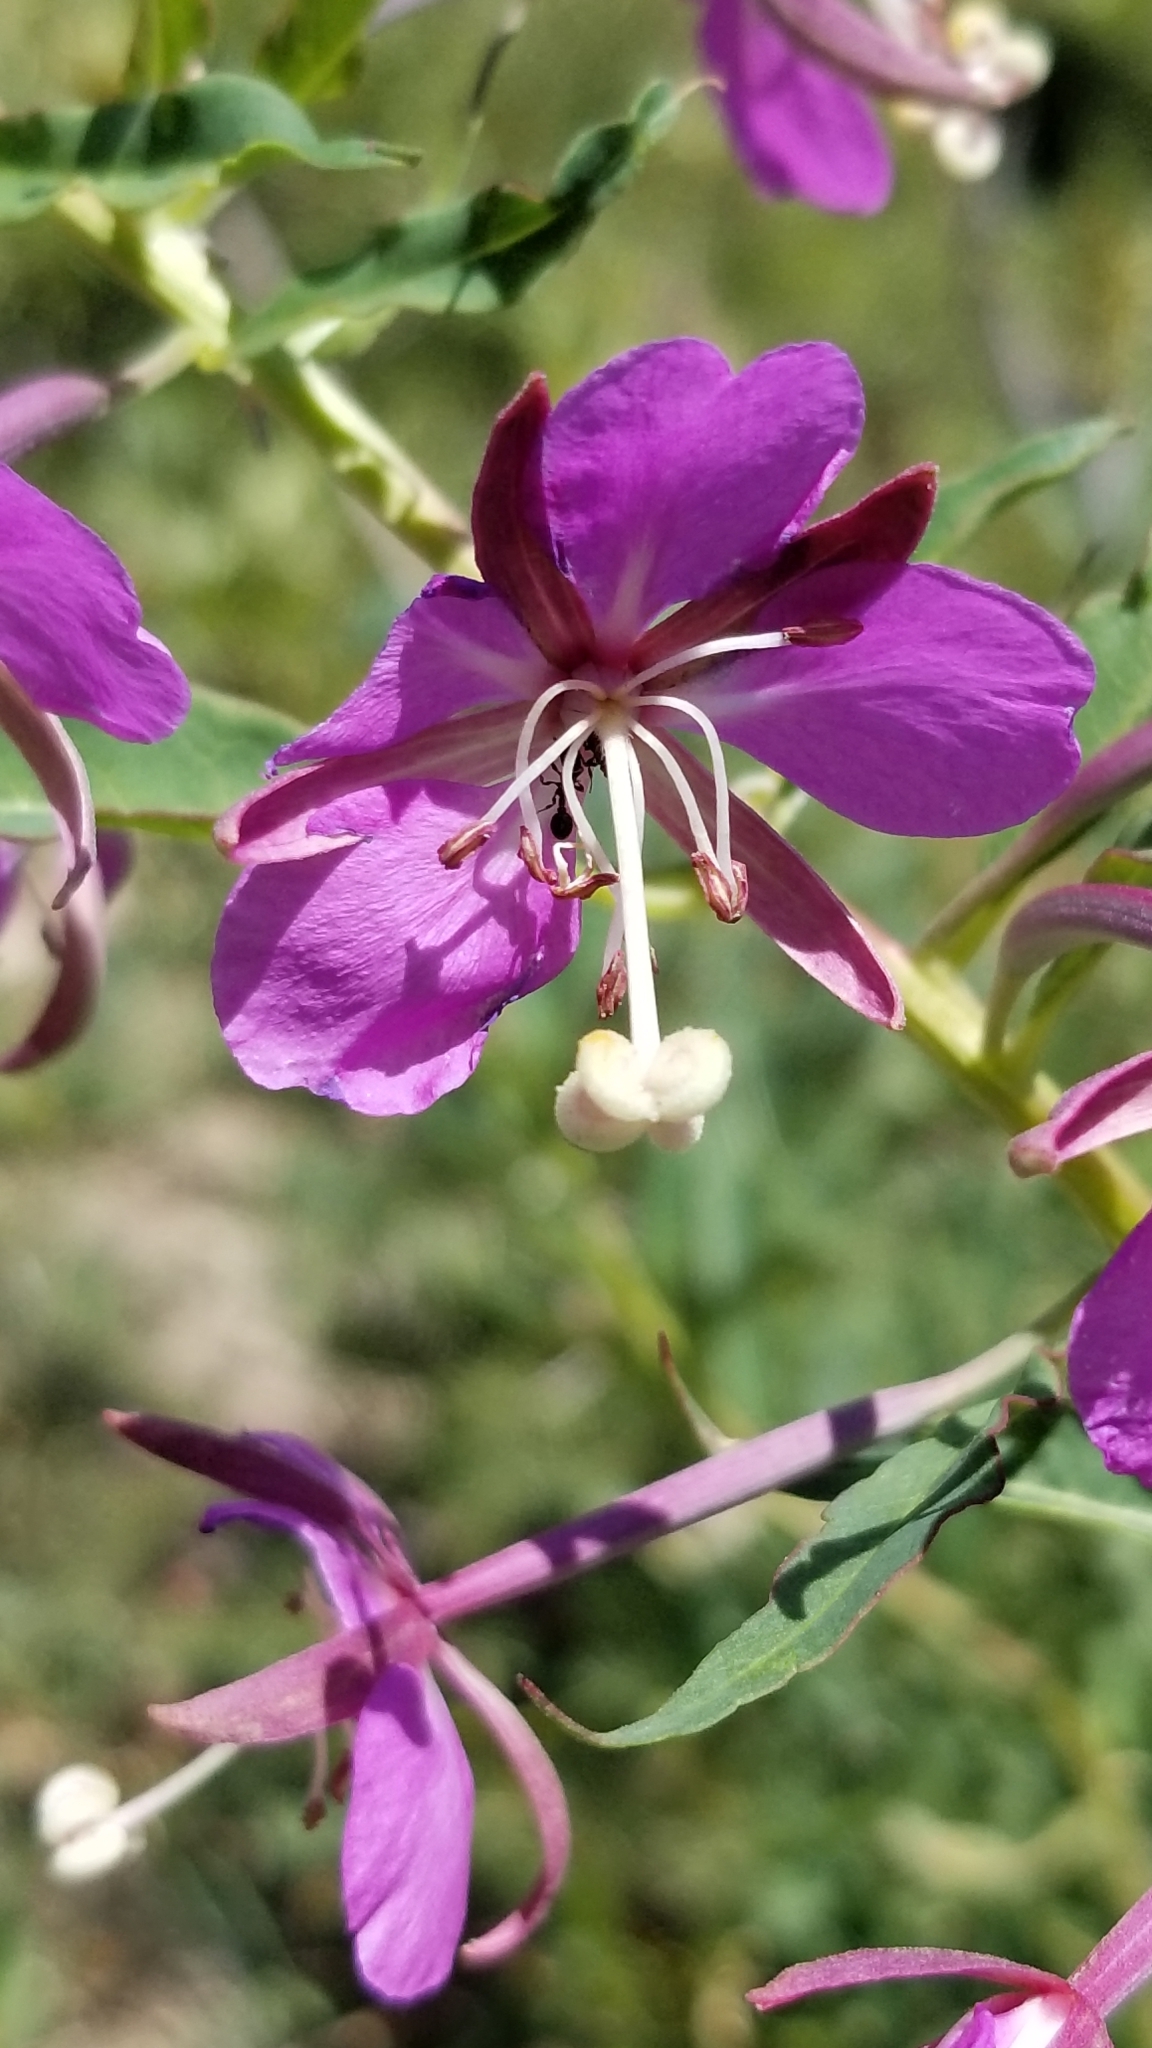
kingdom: Plantae
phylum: Tracheophyta
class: Magnoliopsida
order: Myrtales
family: Onagraceae
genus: Chamaenerion
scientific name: Chamaenerion angustifolium
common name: Fireweed
